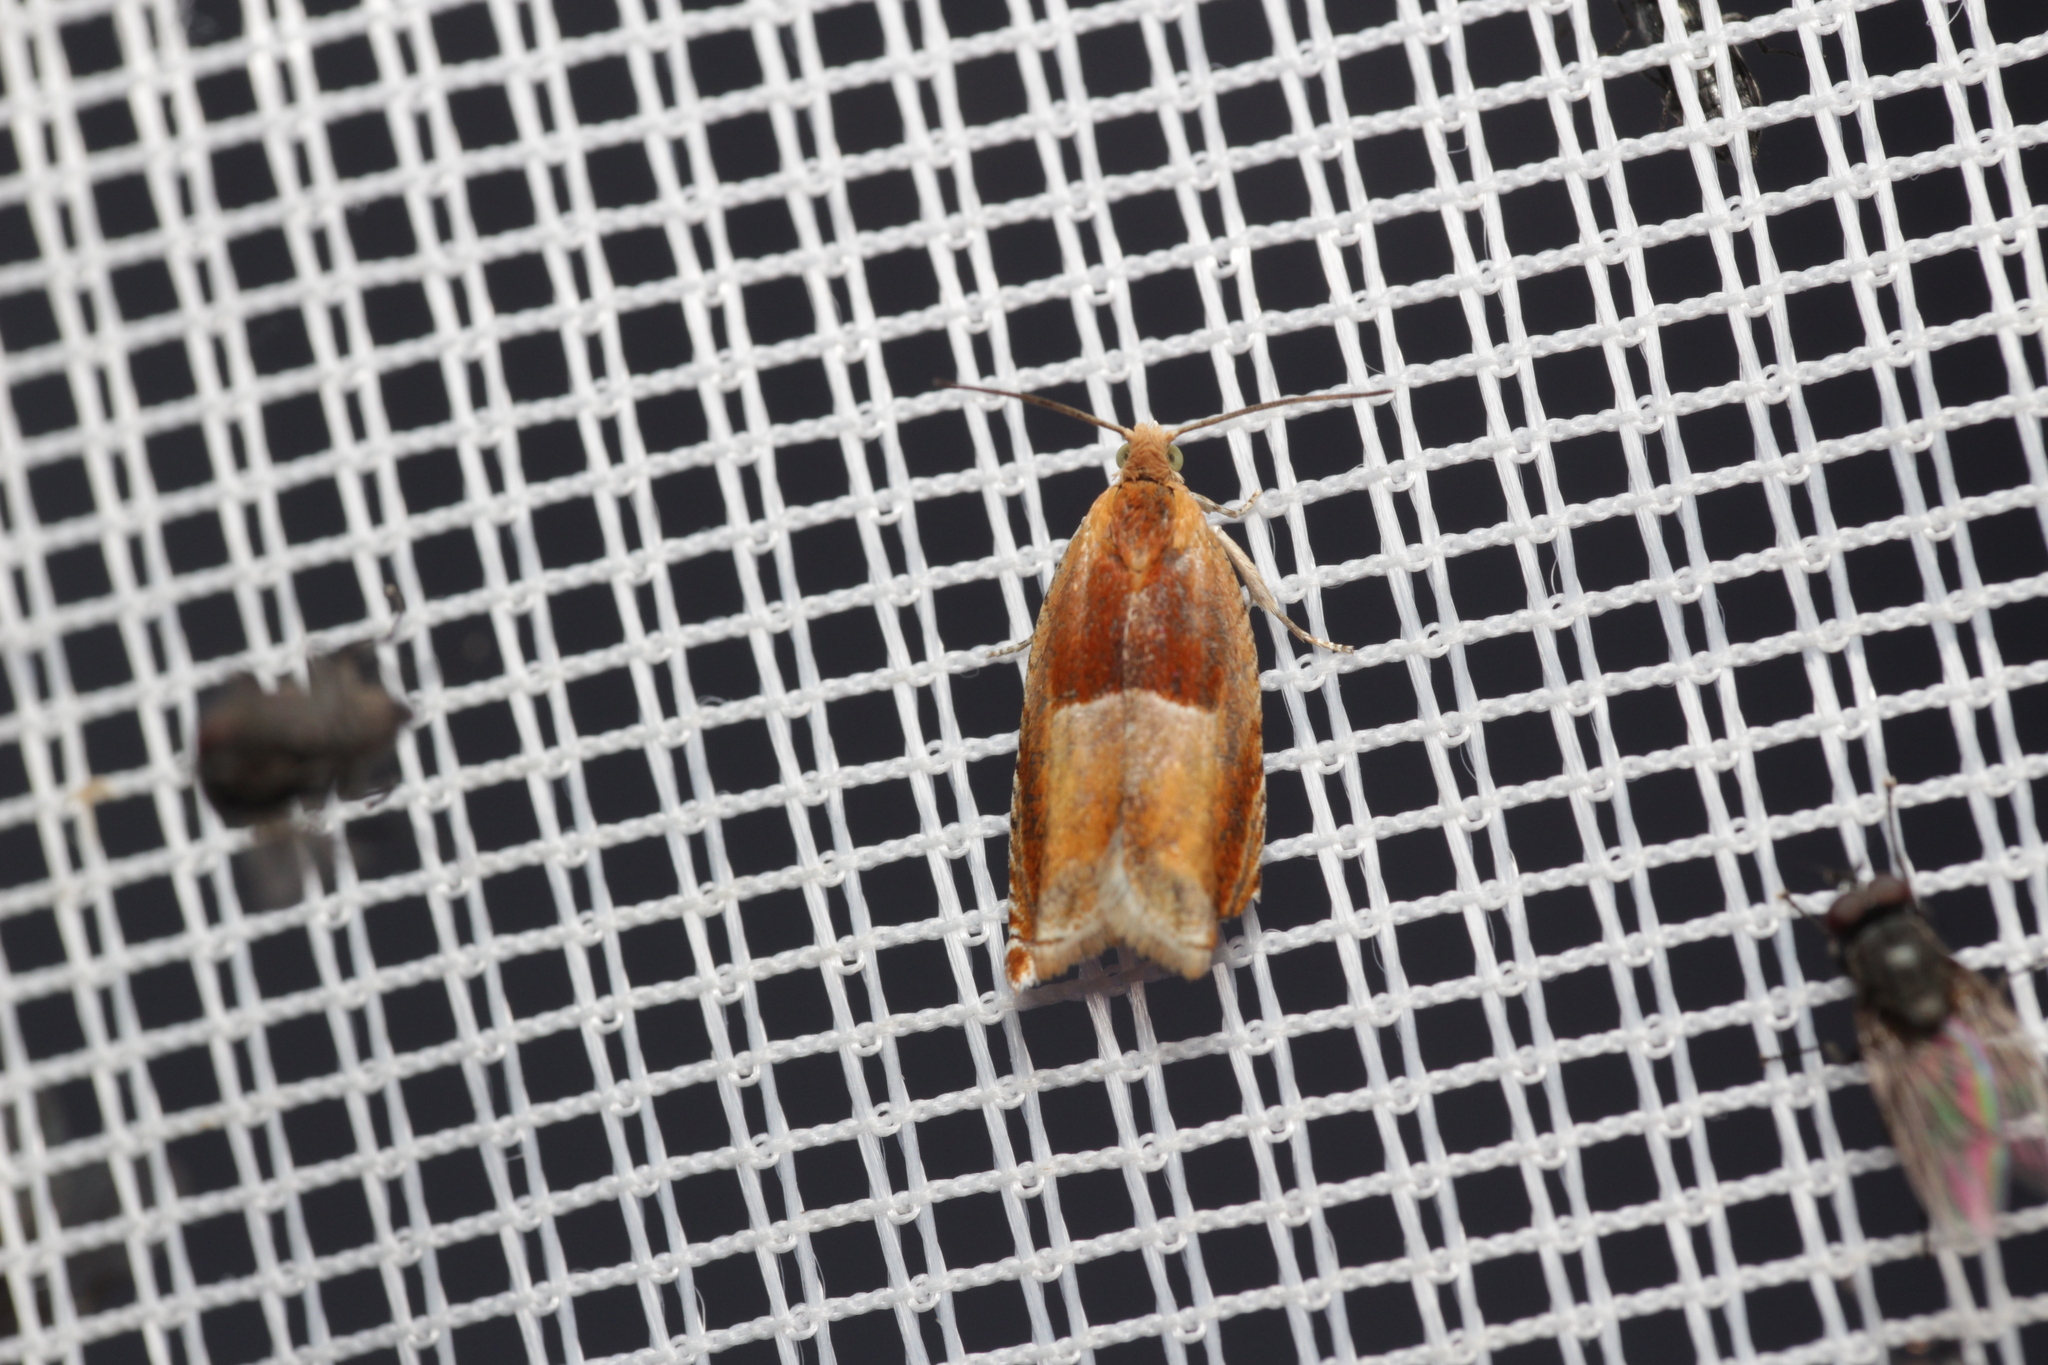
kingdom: Animalia
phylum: Arthropoda
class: Insecta
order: Lepidoptera
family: Tortricidae
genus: Ancylis
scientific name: Ancylis mitterbacheriana
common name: Red roller
